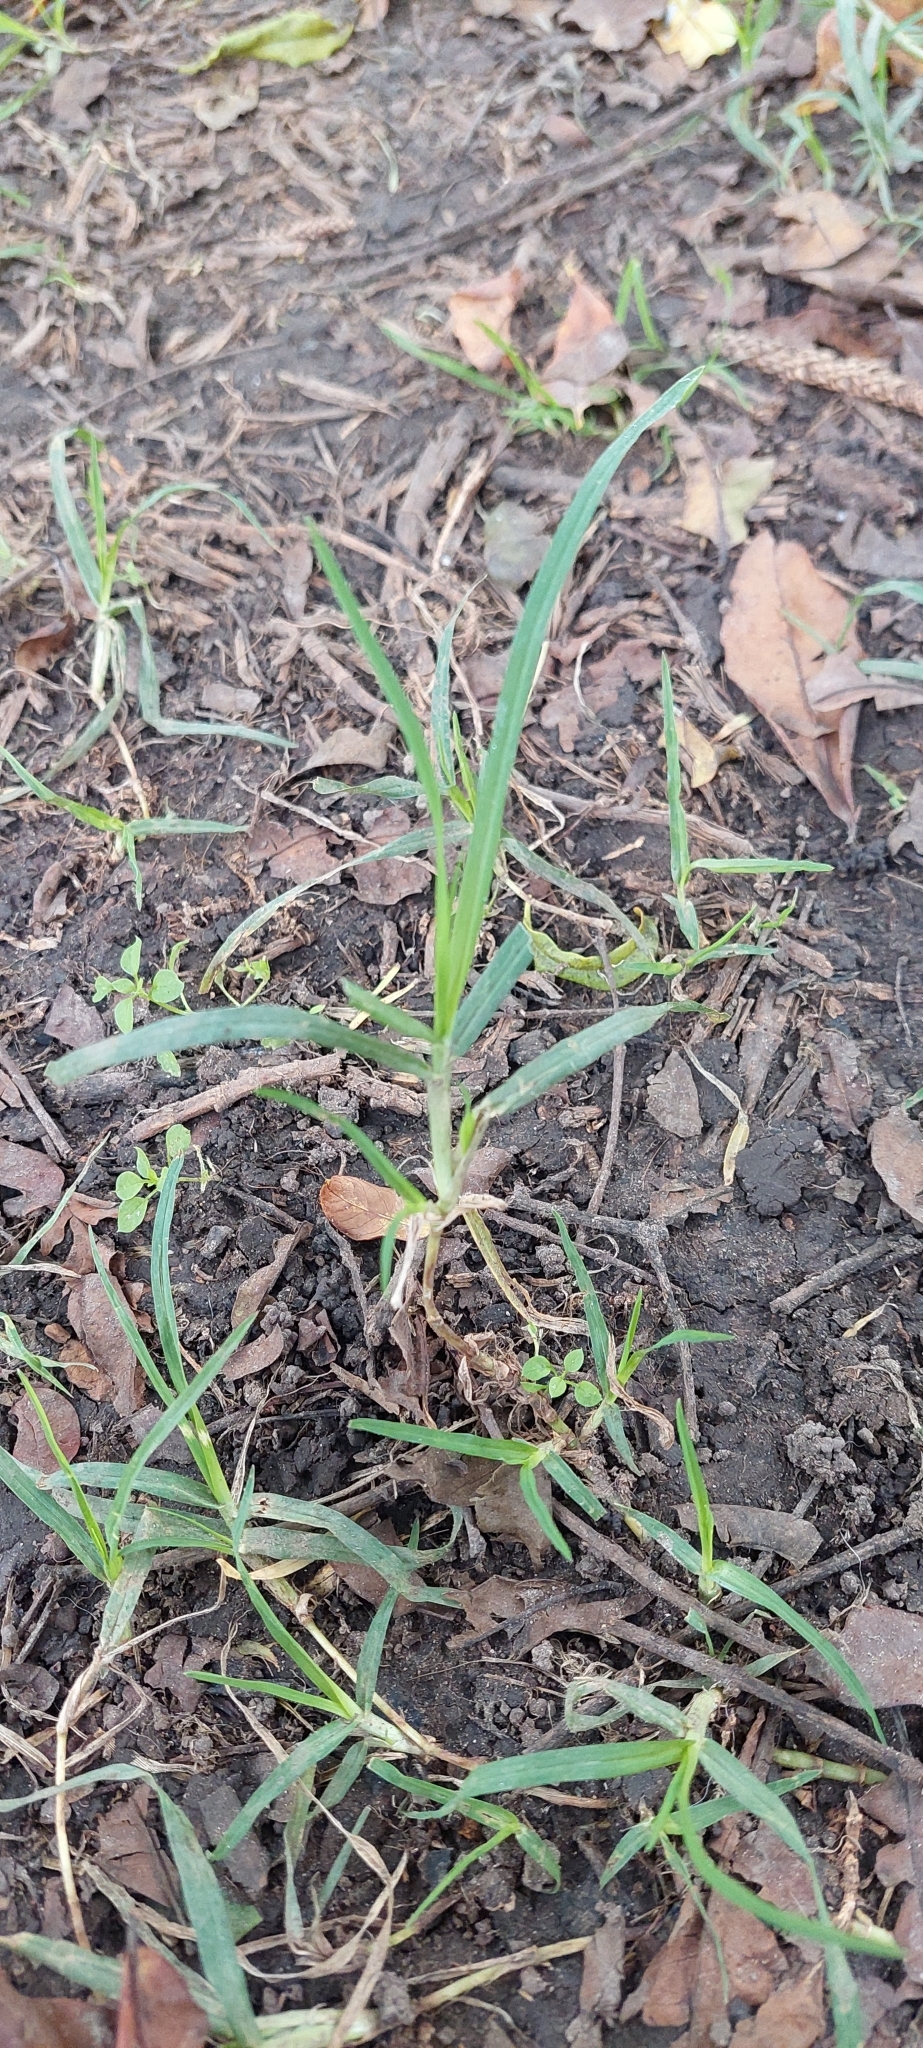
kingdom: Plantae
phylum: Tracheophyta
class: Liliopsida
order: Poales
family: Poaceae
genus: Cenchrus
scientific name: Cenchrus clandestinus
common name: Kikuyugrass
